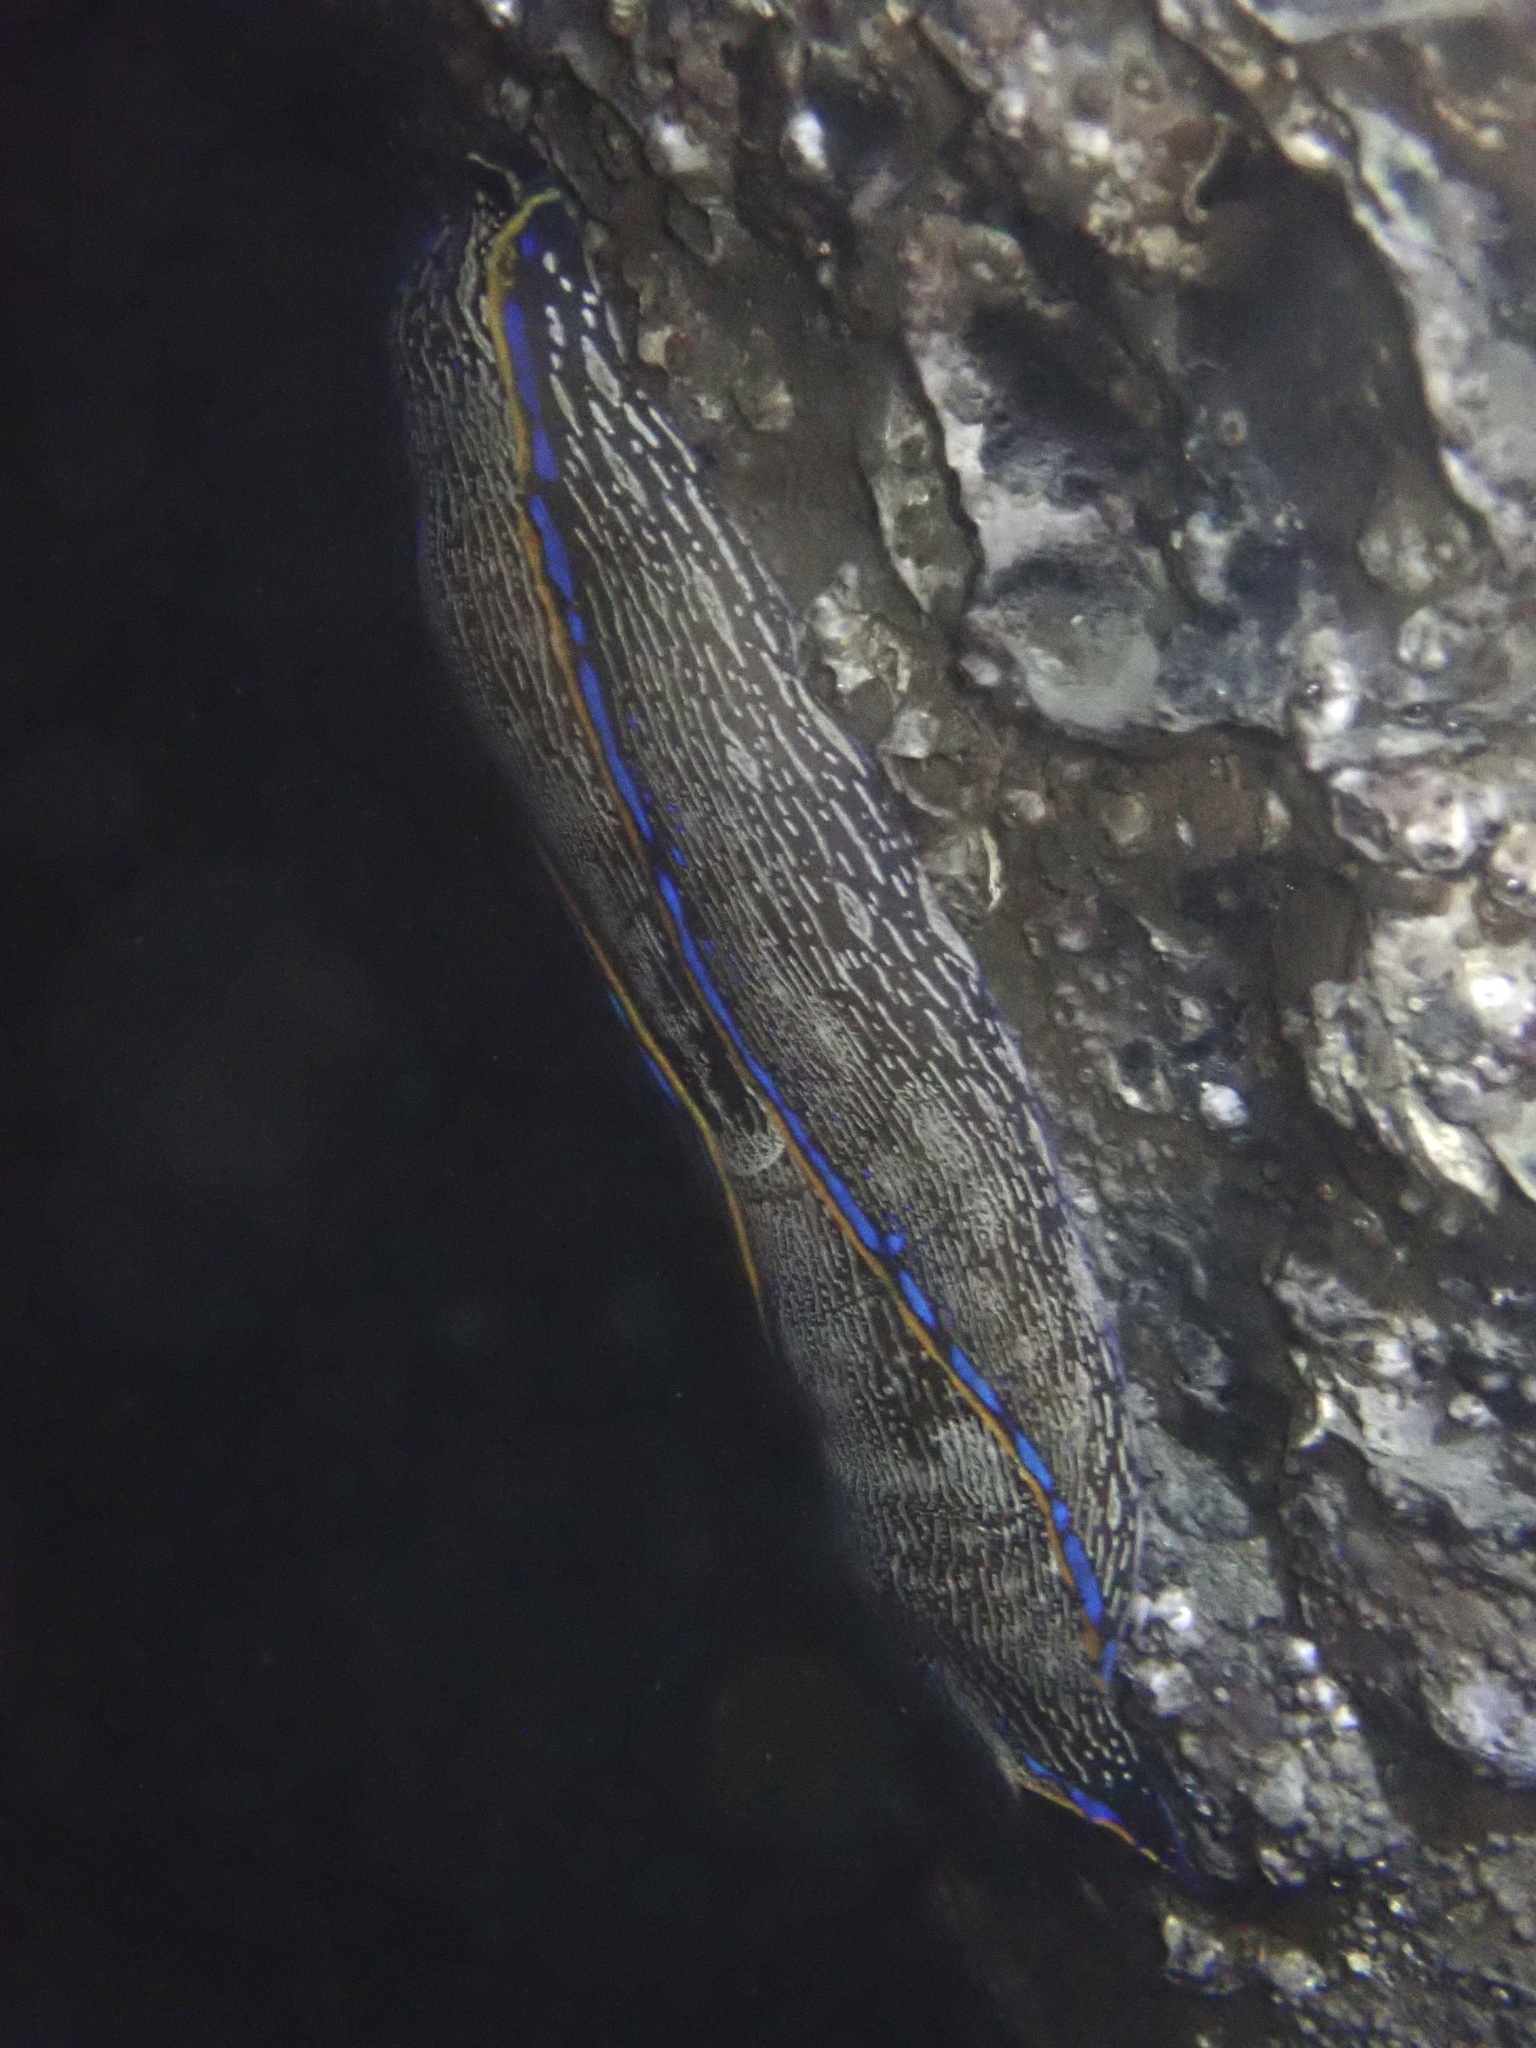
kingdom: Animalia
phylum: Mollusca
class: Gastropoda
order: Cephalaspidea
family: Aglajidae
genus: Navanax
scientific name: Navanax inermis
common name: California aglaja
